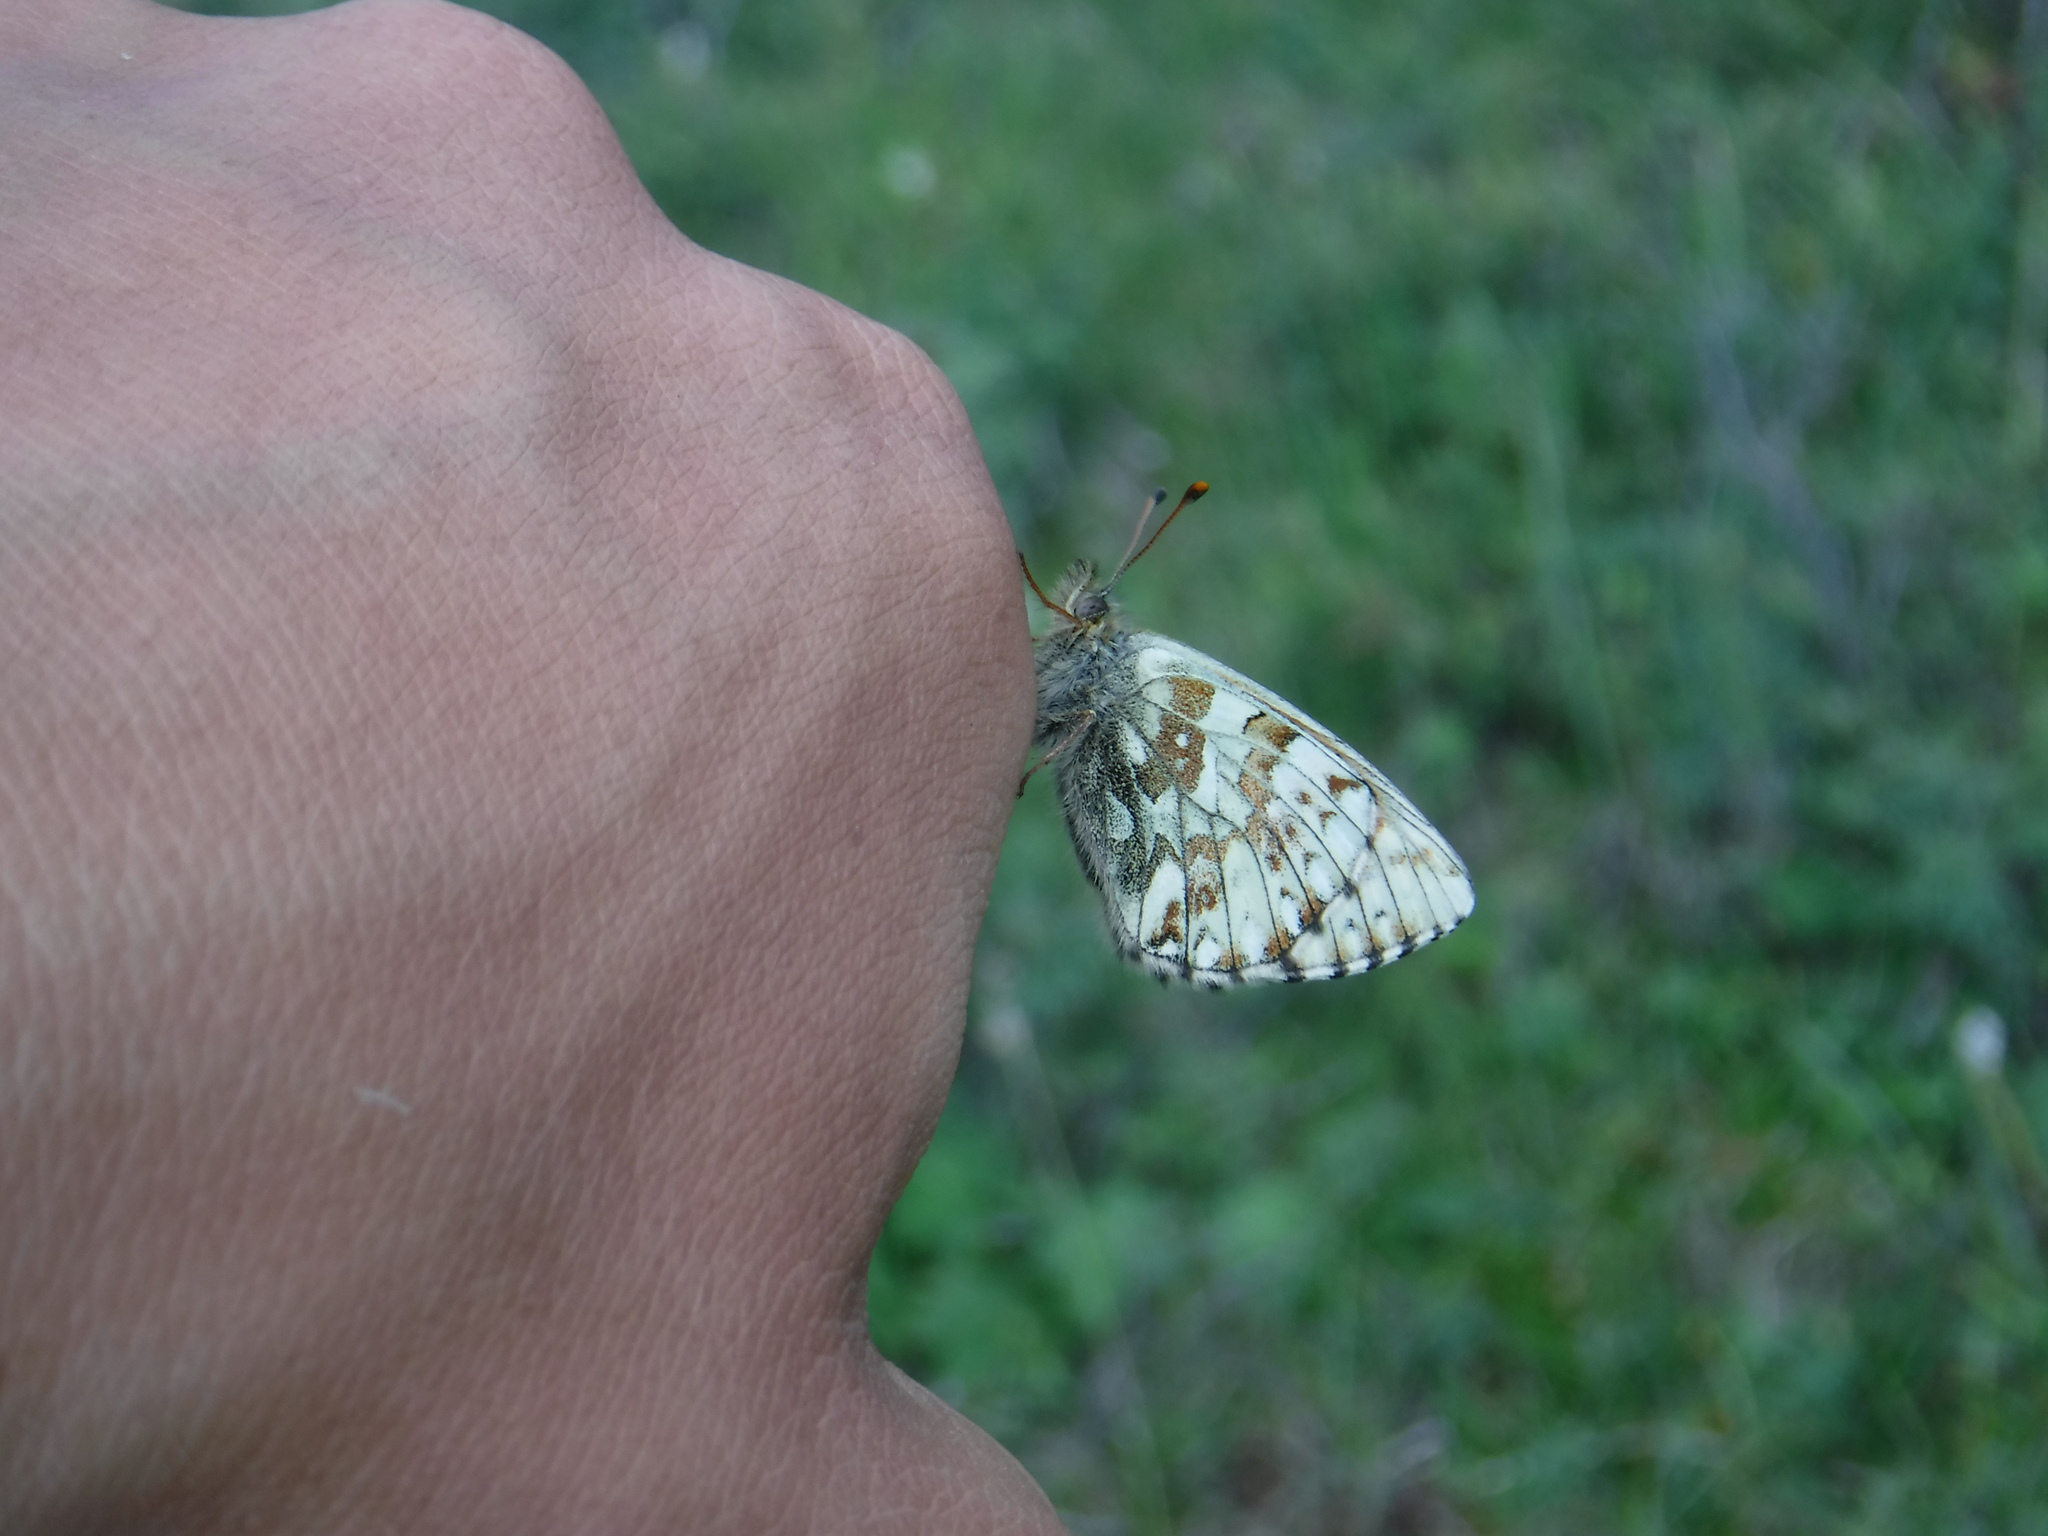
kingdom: Animalia
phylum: Arthropoda
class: Insecta
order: Lepidoptera
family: Nymphalidae
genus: Boloria
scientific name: Boloria
